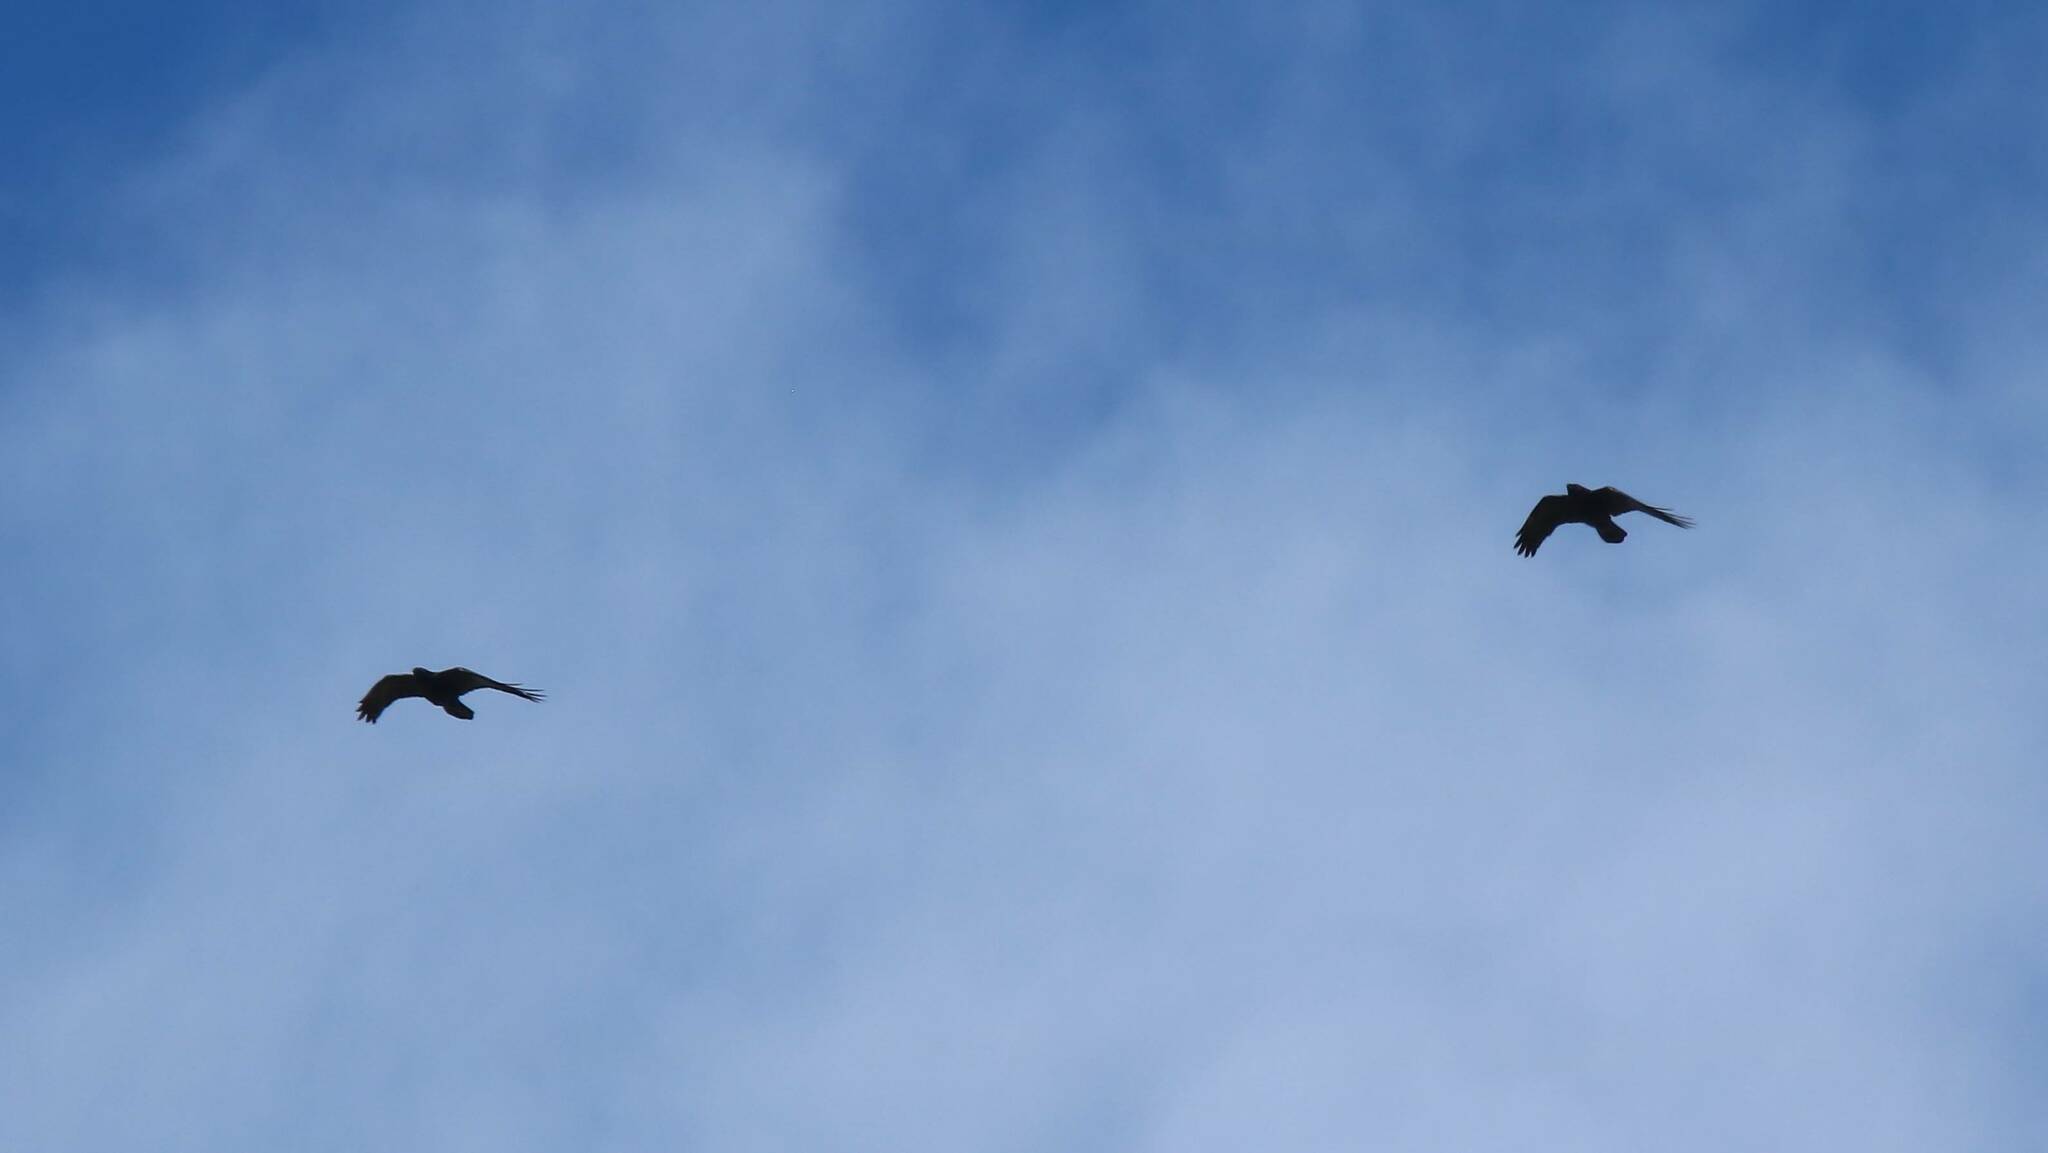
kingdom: Animalia
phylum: Chordata
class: Aves
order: Passeriformes
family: Corvidae
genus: Corvus
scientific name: Corvus corax
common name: Common raven
